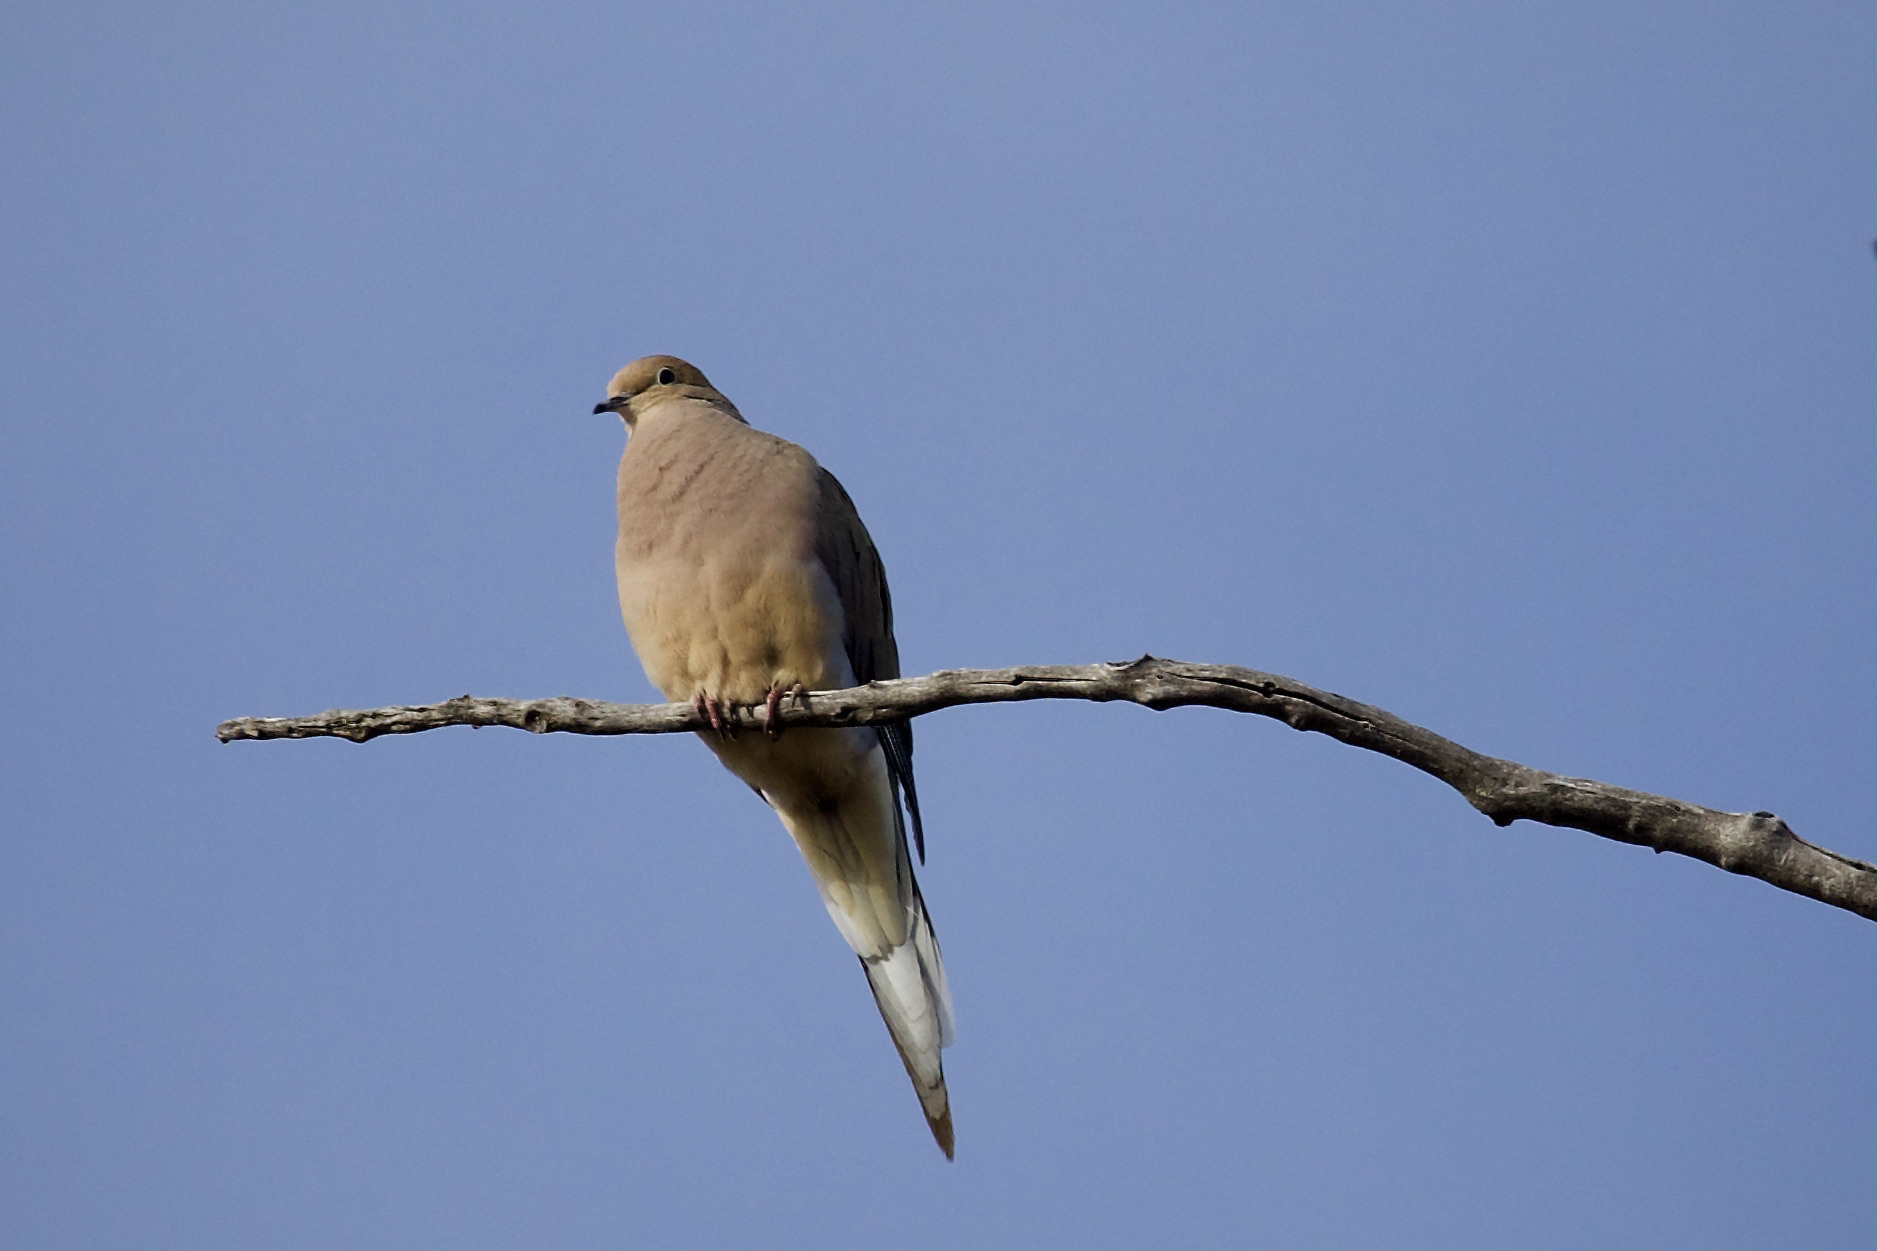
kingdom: Animalia
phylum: Chordata
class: Aves
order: Columbiformes
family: Columbidae
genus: Zenaida
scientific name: Zenaida macroura
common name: Mourning dove
